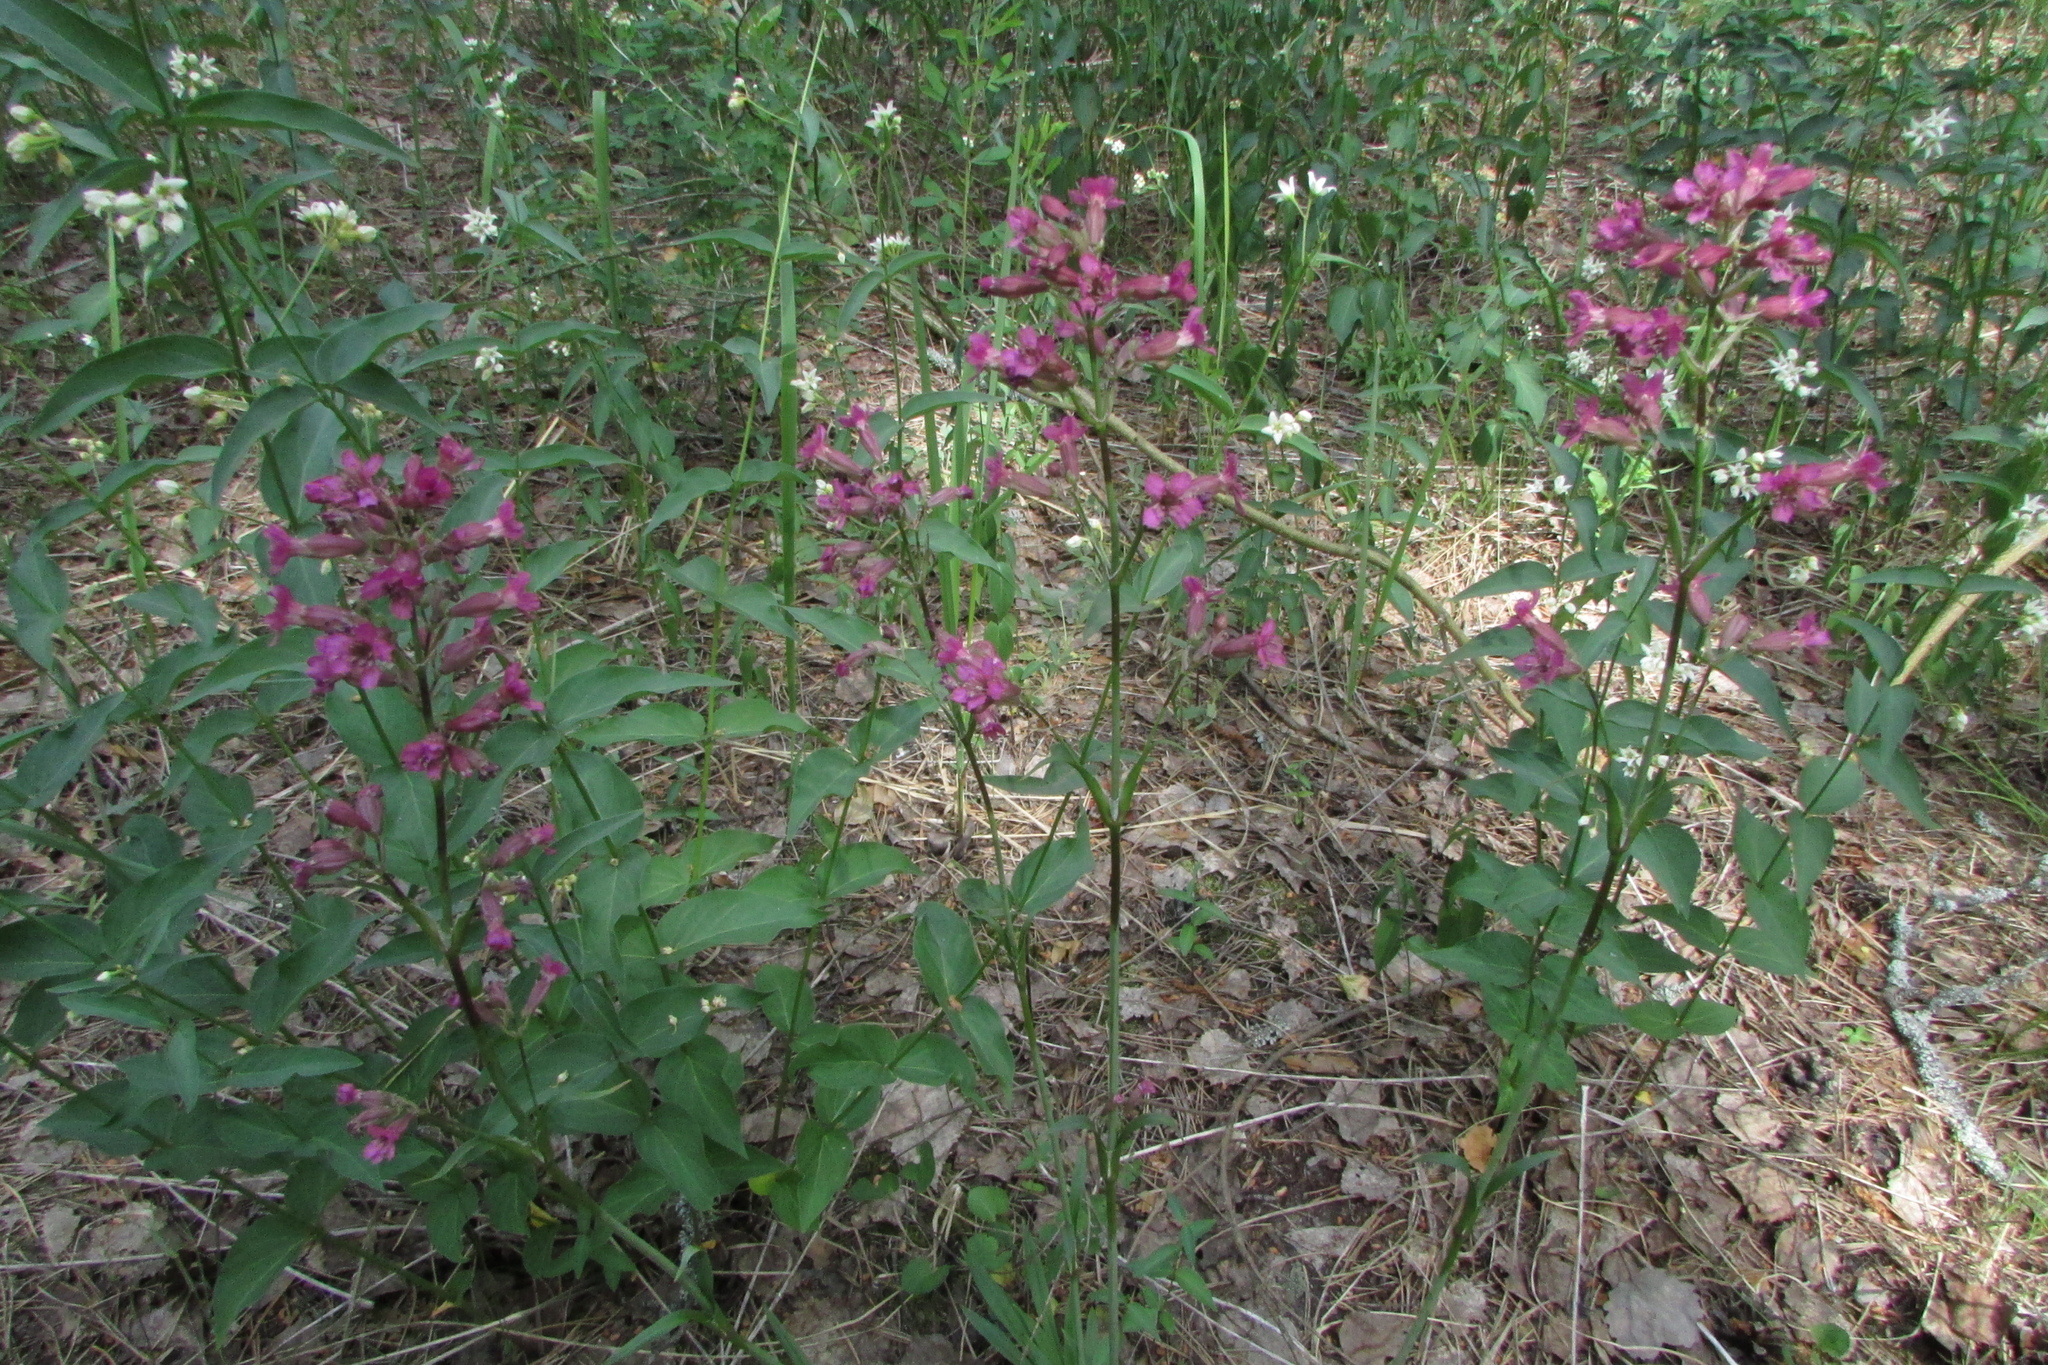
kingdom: Plantae
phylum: Tracheophyta
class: Magnoliopsida
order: Caryophyllales
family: Caryophyllaceae
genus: Viscaria
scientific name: Viscaria vulgaris
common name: Clammy campion
